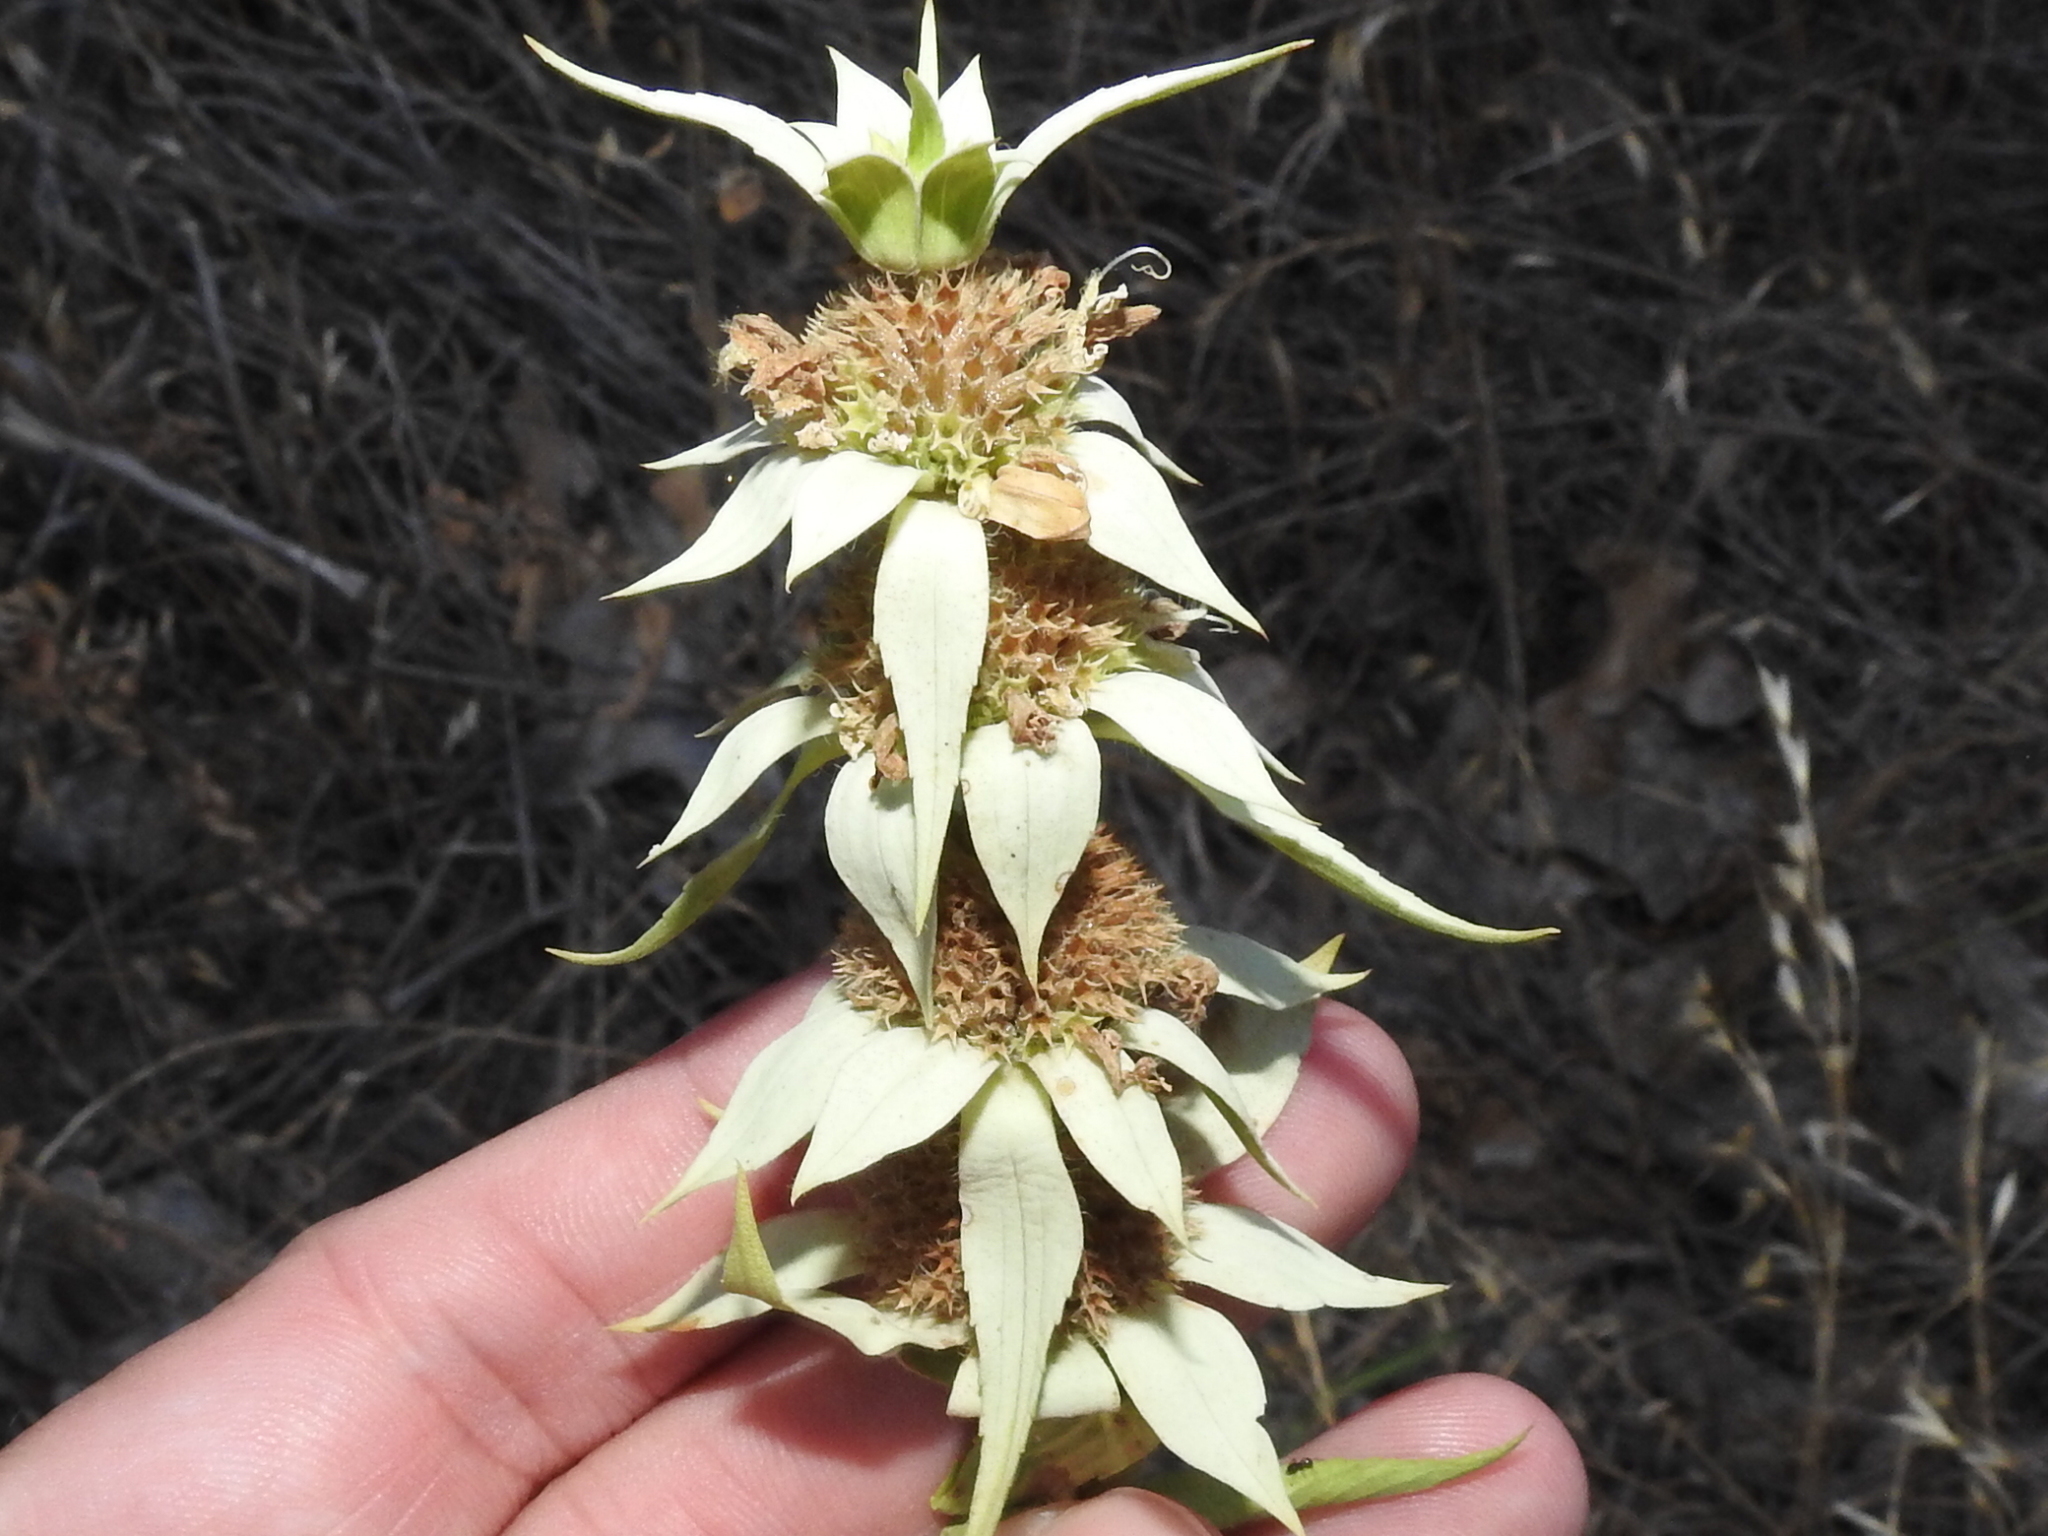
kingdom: Plantae
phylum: Tracheophyta
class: Magnoliopsida
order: Lamiales
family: Lamiaceae
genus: Monarda
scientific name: Monarda punctata
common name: Dotted monarda
